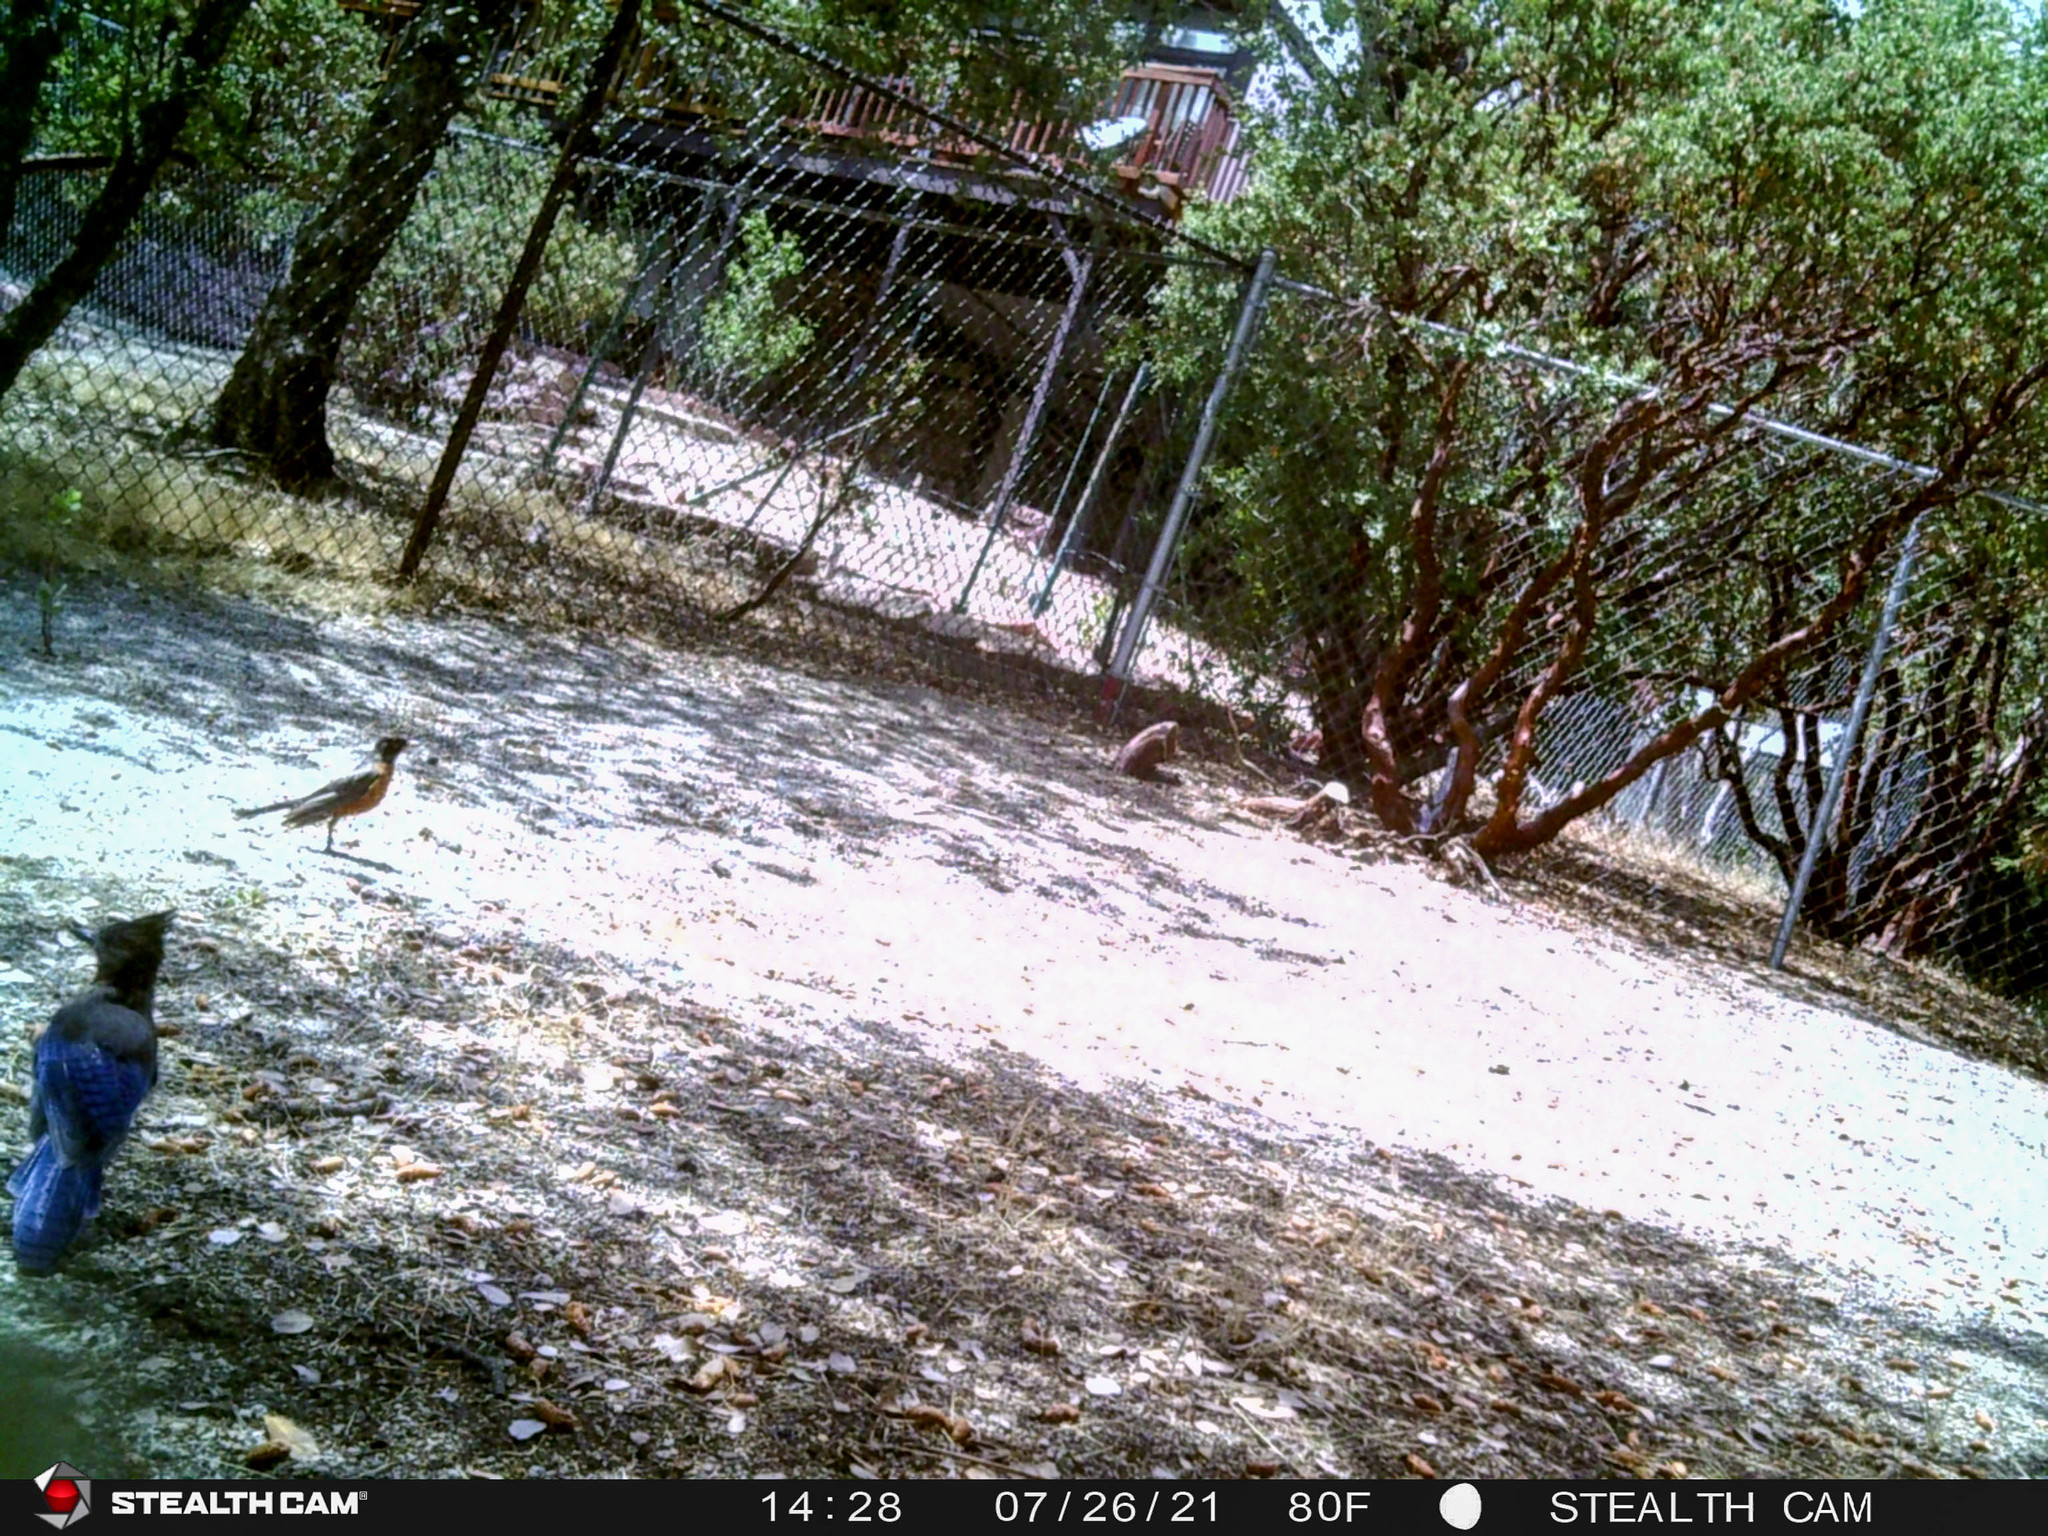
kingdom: Animalia
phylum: Chordata
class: Aves
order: Passeriformes
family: Corvidae
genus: Cyanocitta
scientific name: Cyanocitta stelleri
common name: Steller's jay
